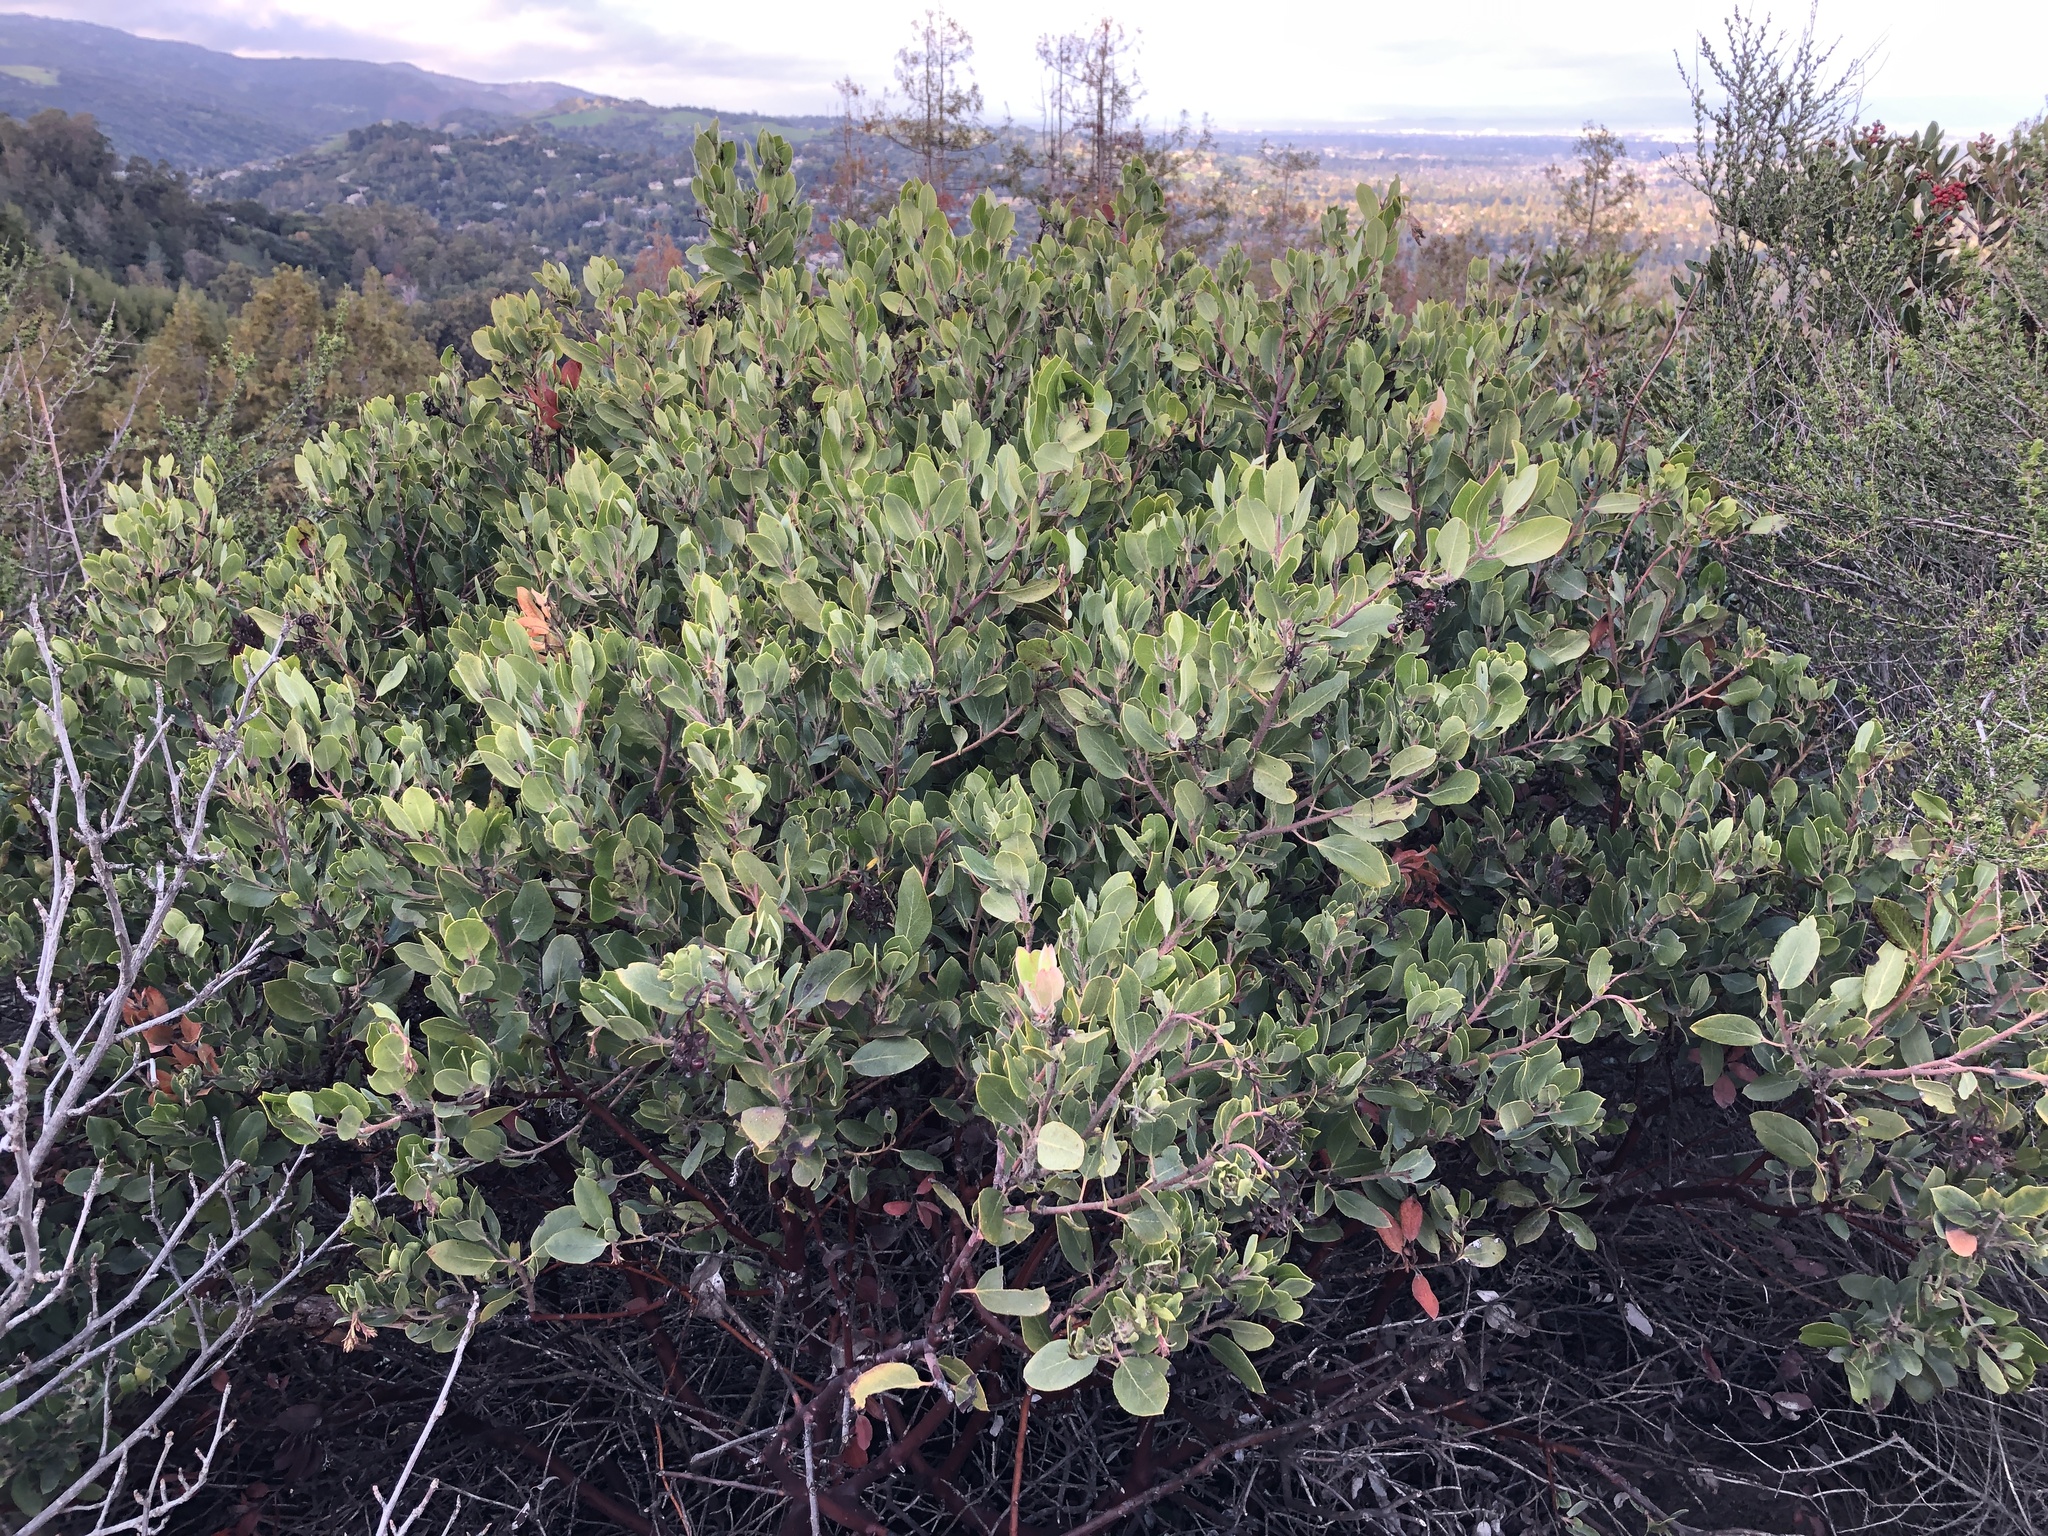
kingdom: Plantae
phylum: Tracheophyta
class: Magnoliopsida
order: Ericales
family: Ericaceae
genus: Arctostaphylos
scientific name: Arctostaphylos crustacea
